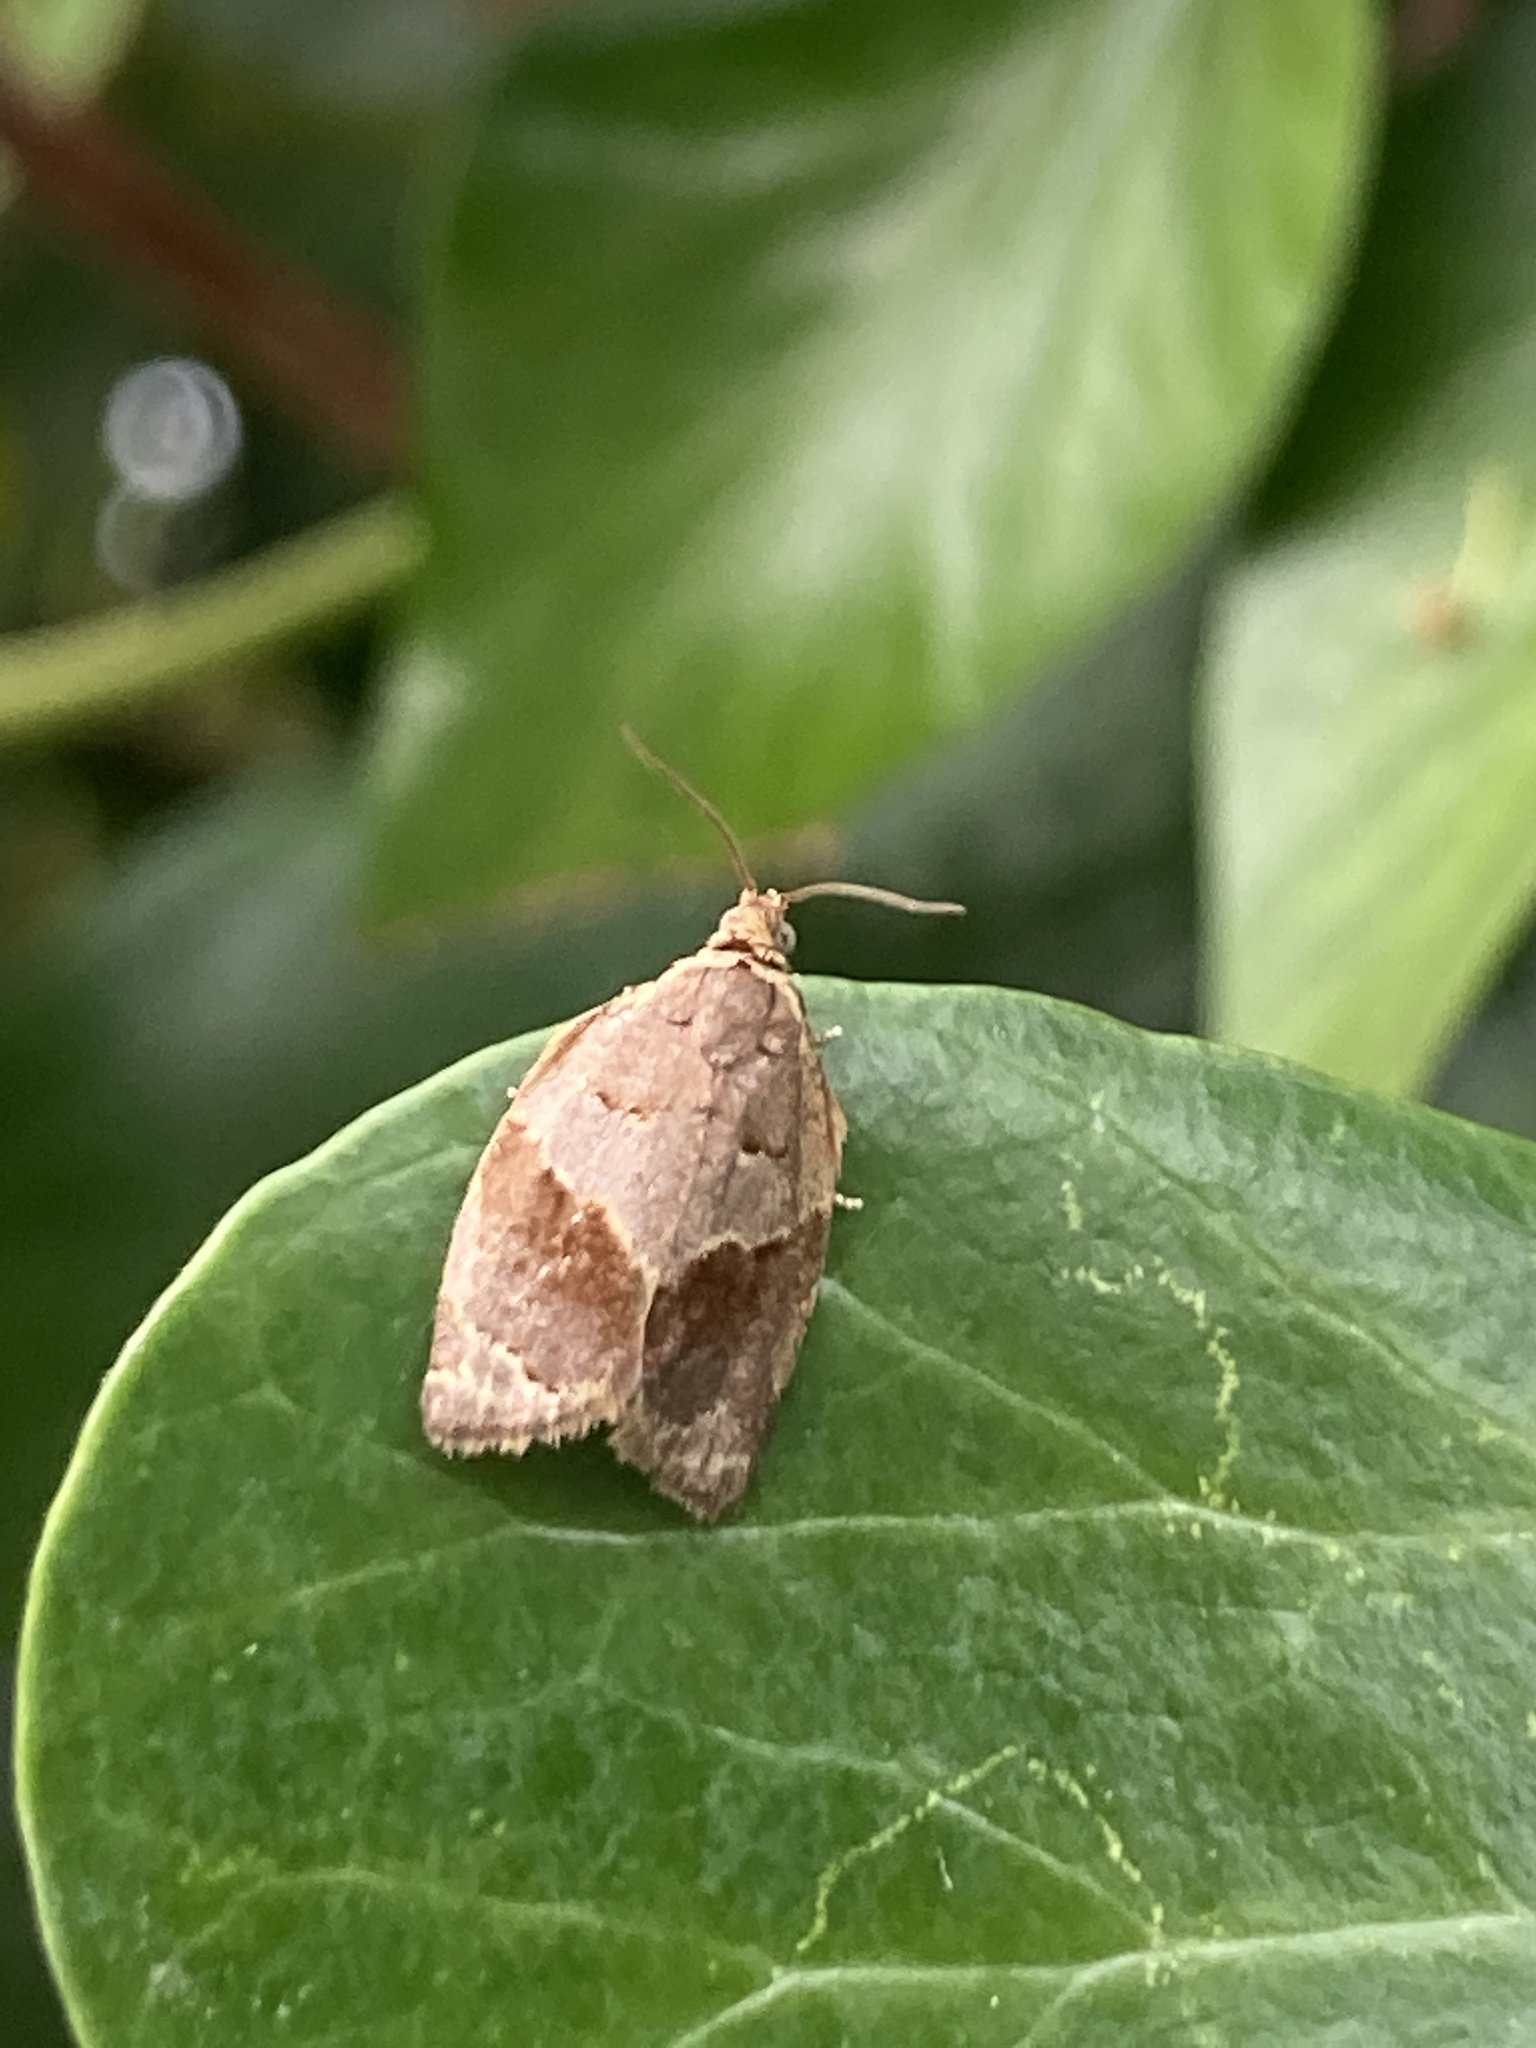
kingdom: Animalia
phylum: Arthropoda
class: Insecta
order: Lepidoptera
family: Tortricidae
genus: Clepsis
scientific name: Clepsis dumicolana
